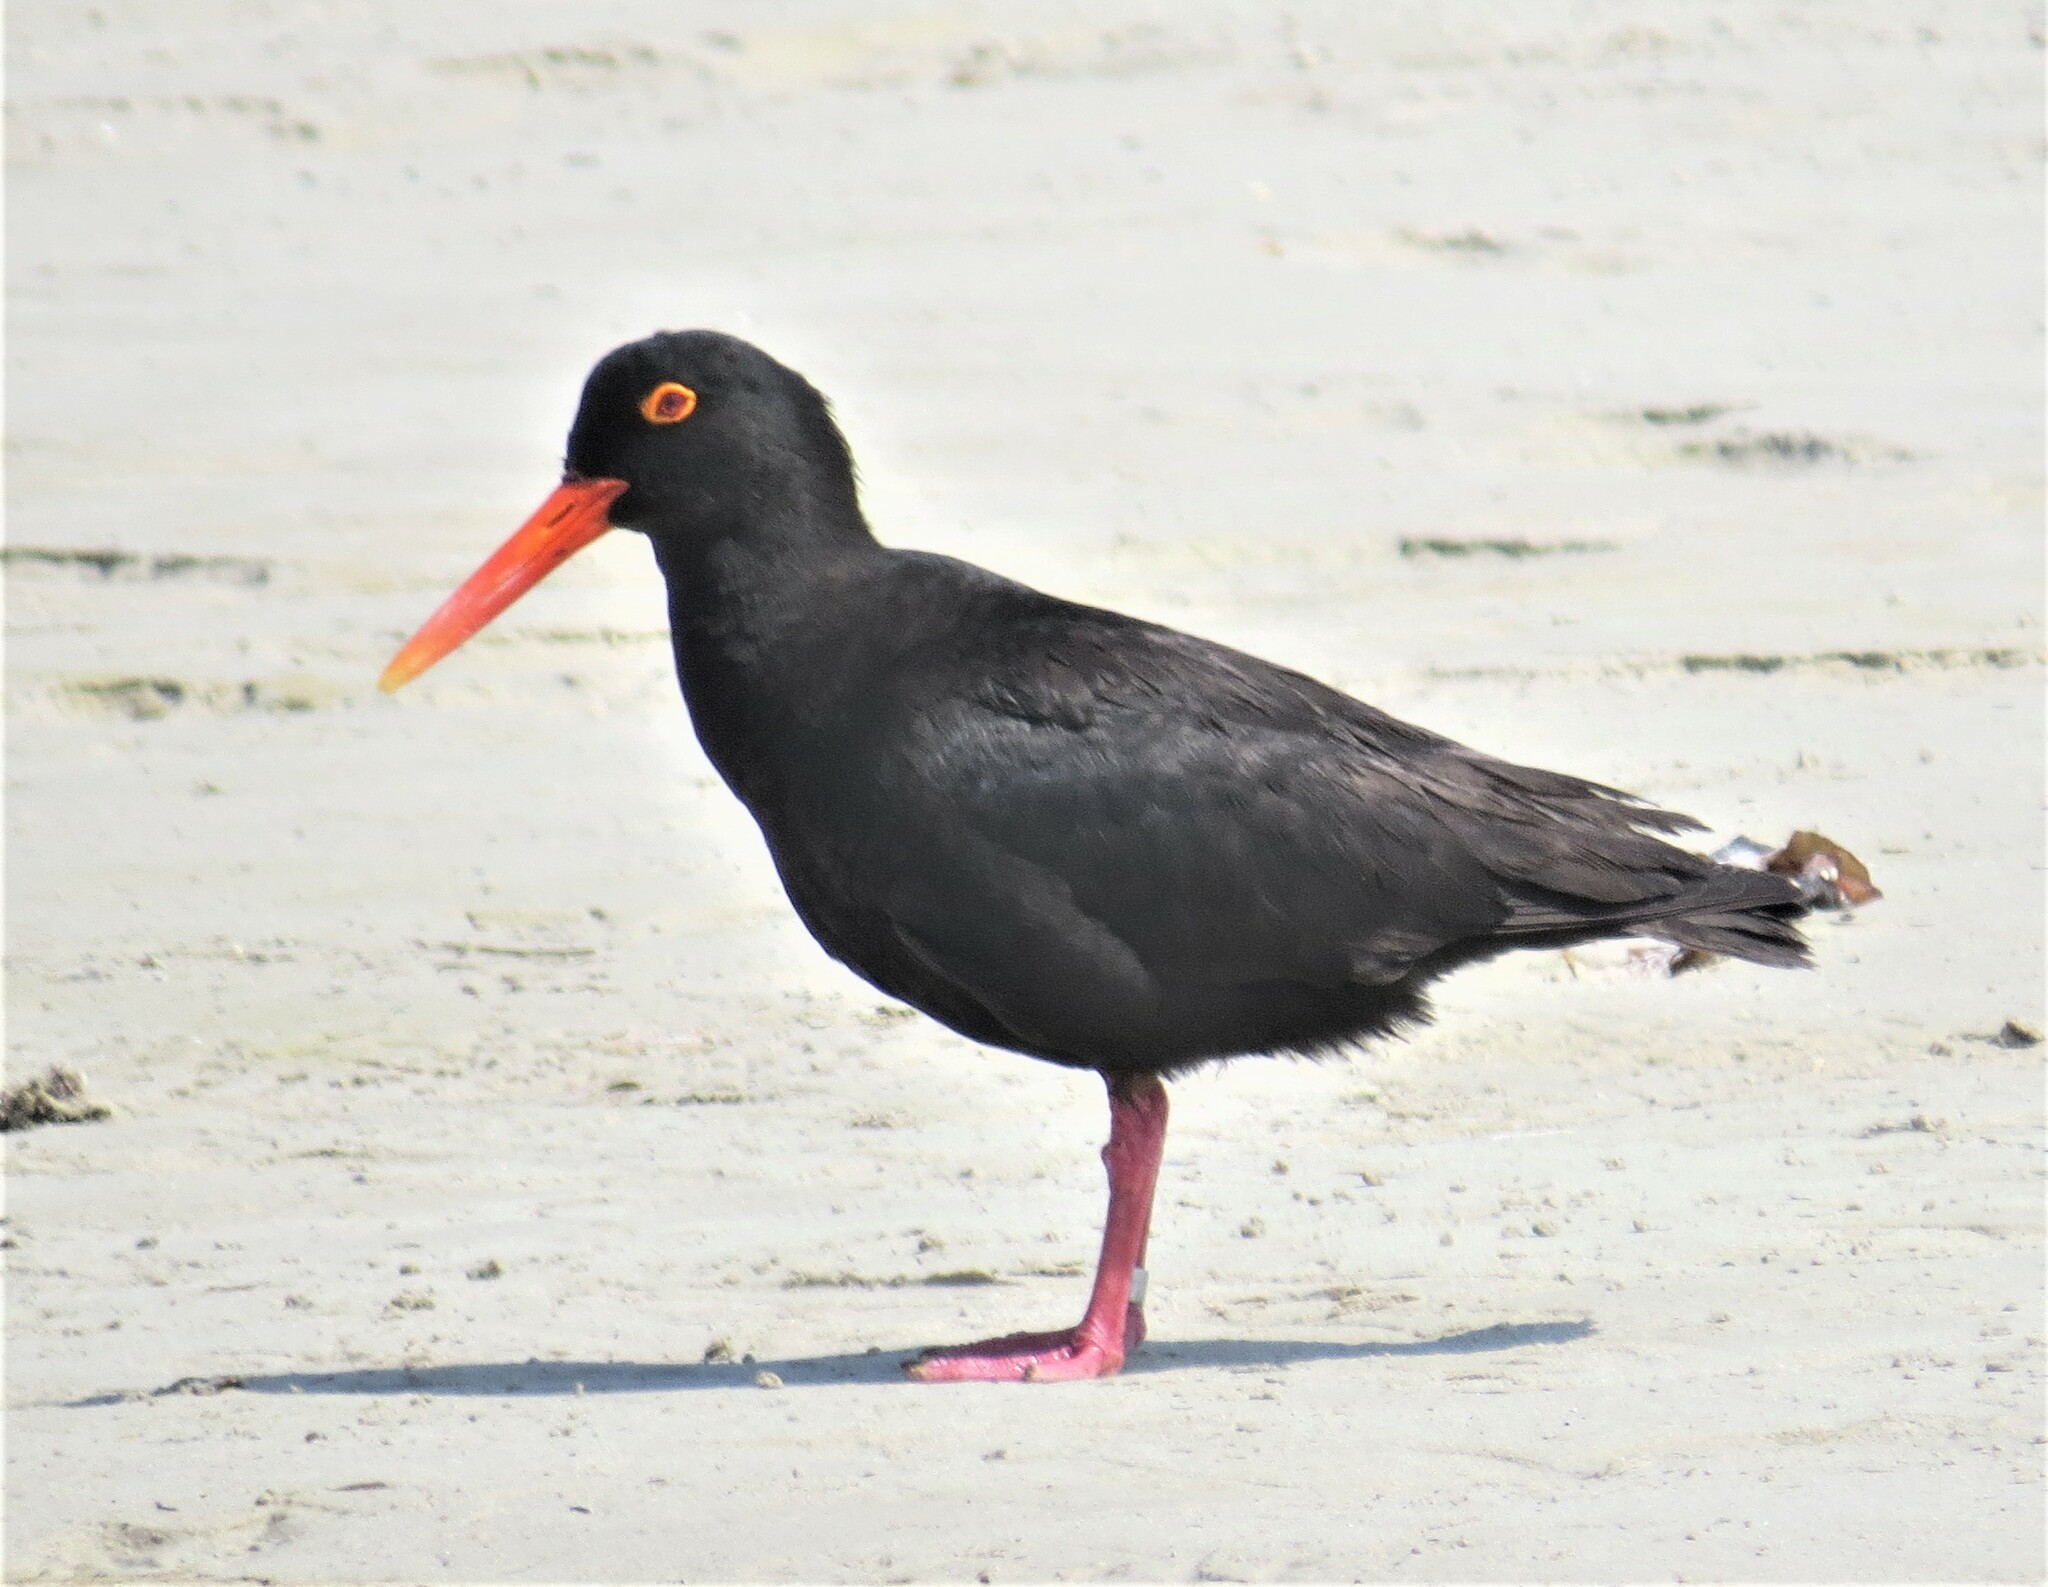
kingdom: Animalia
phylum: Chordata
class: Aves
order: Charadriiformes
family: Haematopodidae
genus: Haematopus
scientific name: Haematopus moquini
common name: African oystercatcher
